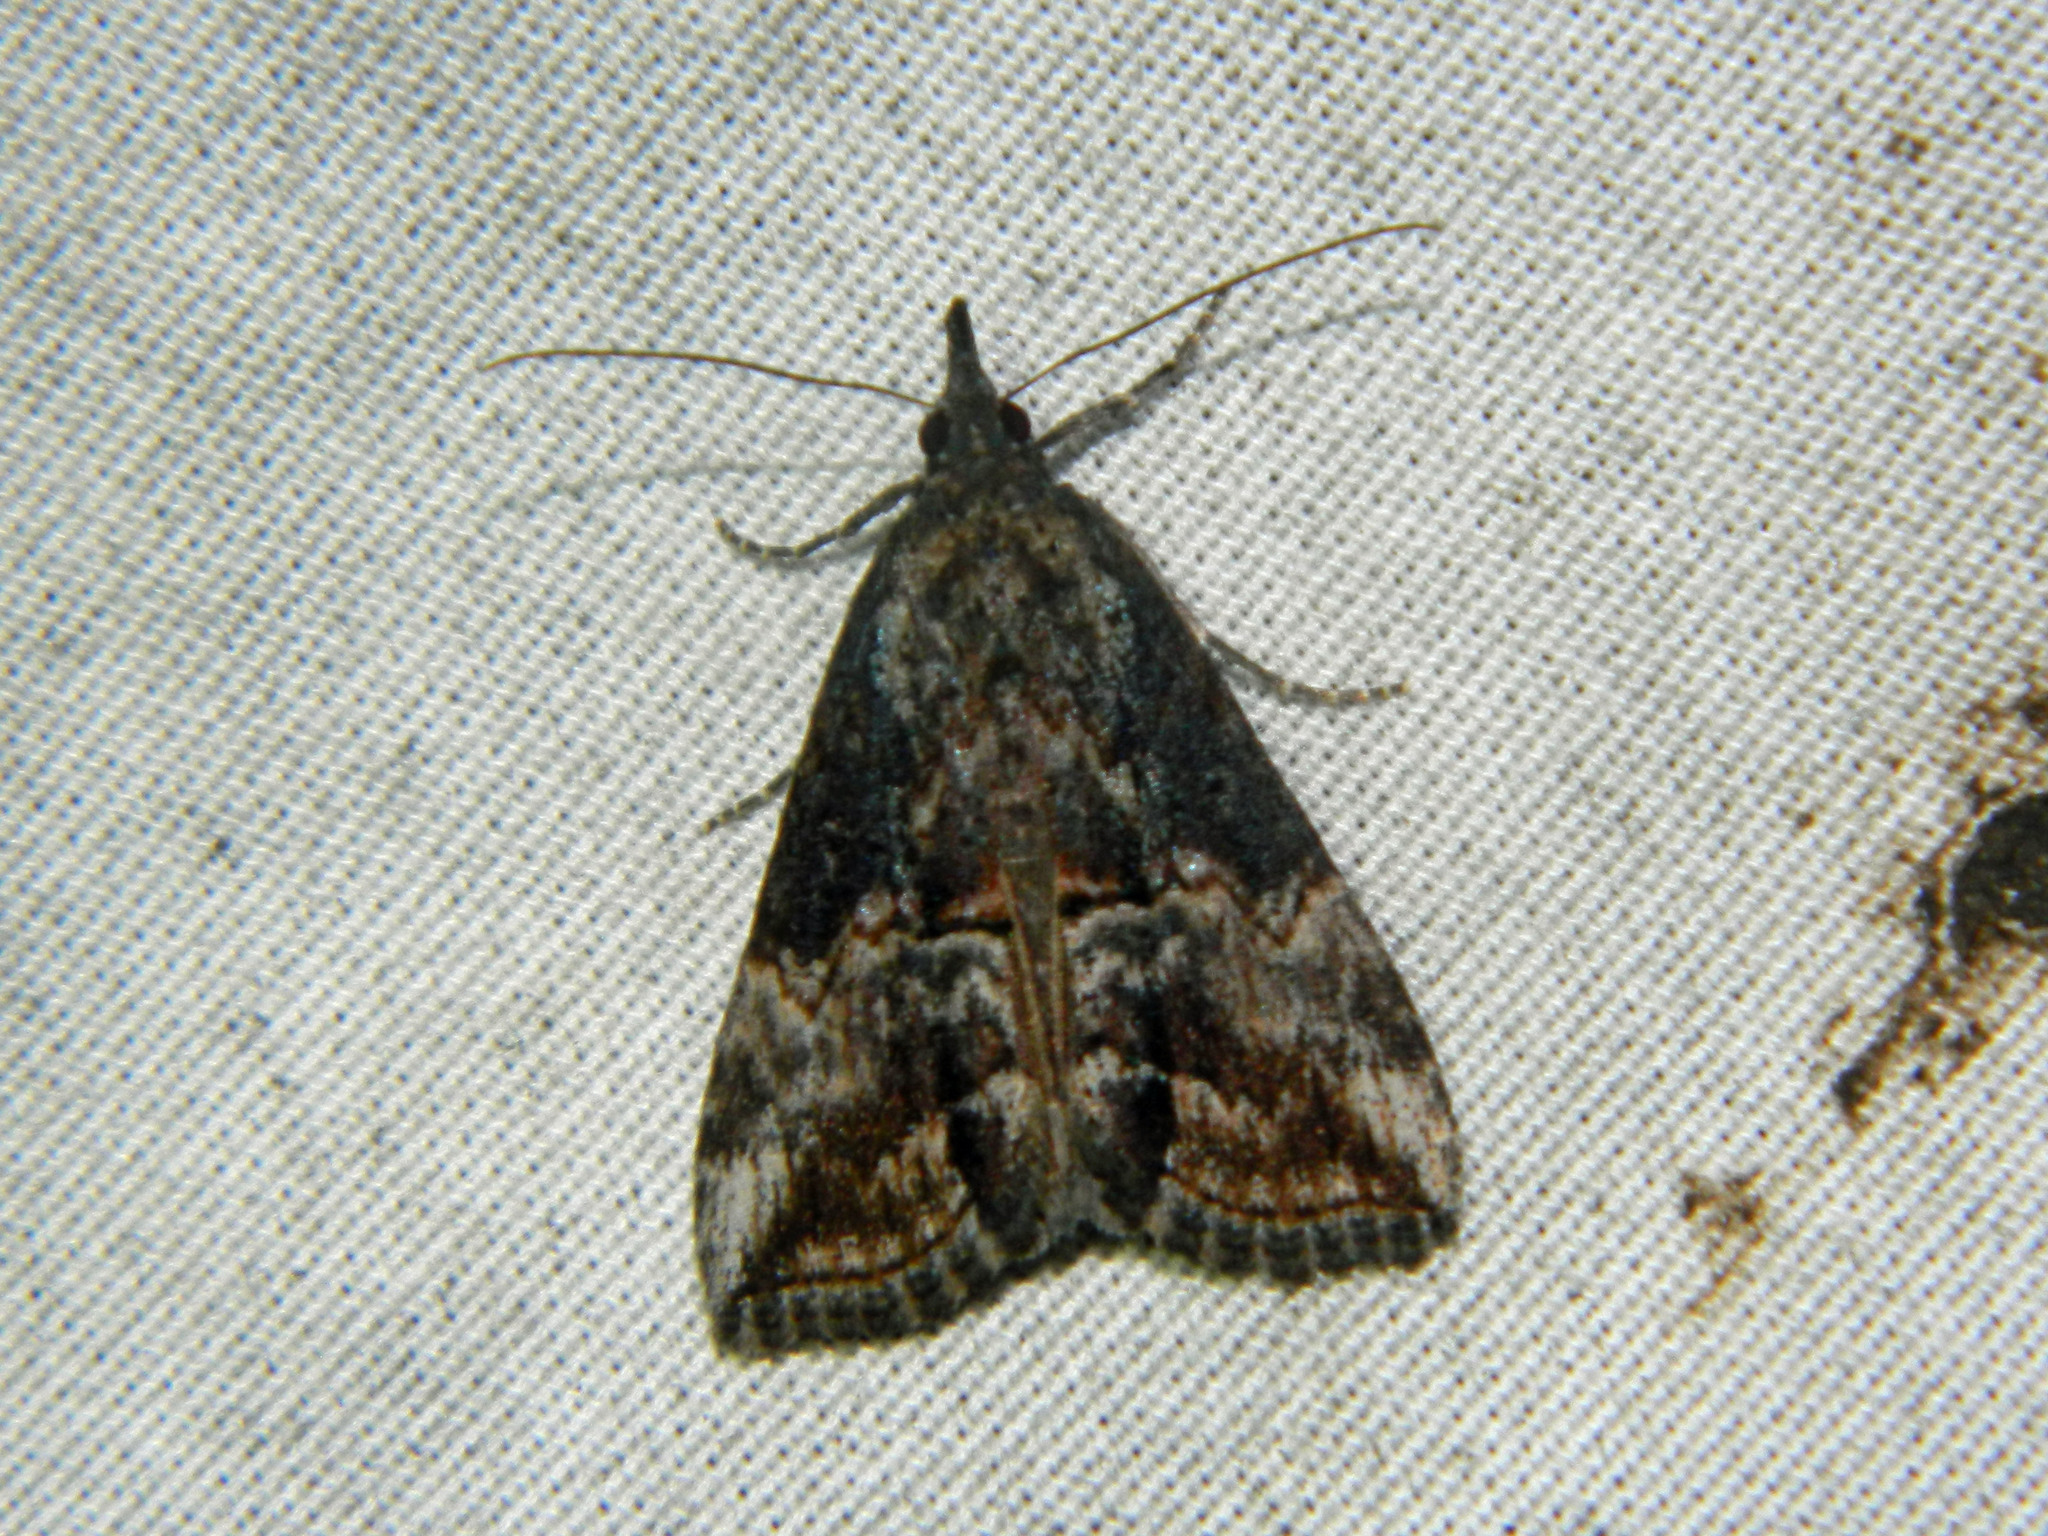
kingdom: Animalia
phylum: Arthropoda
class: Insecta
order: Lepidoptera
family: Erebidae
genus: Hypena
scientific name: Hypena scabra
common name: Green cloverworm
